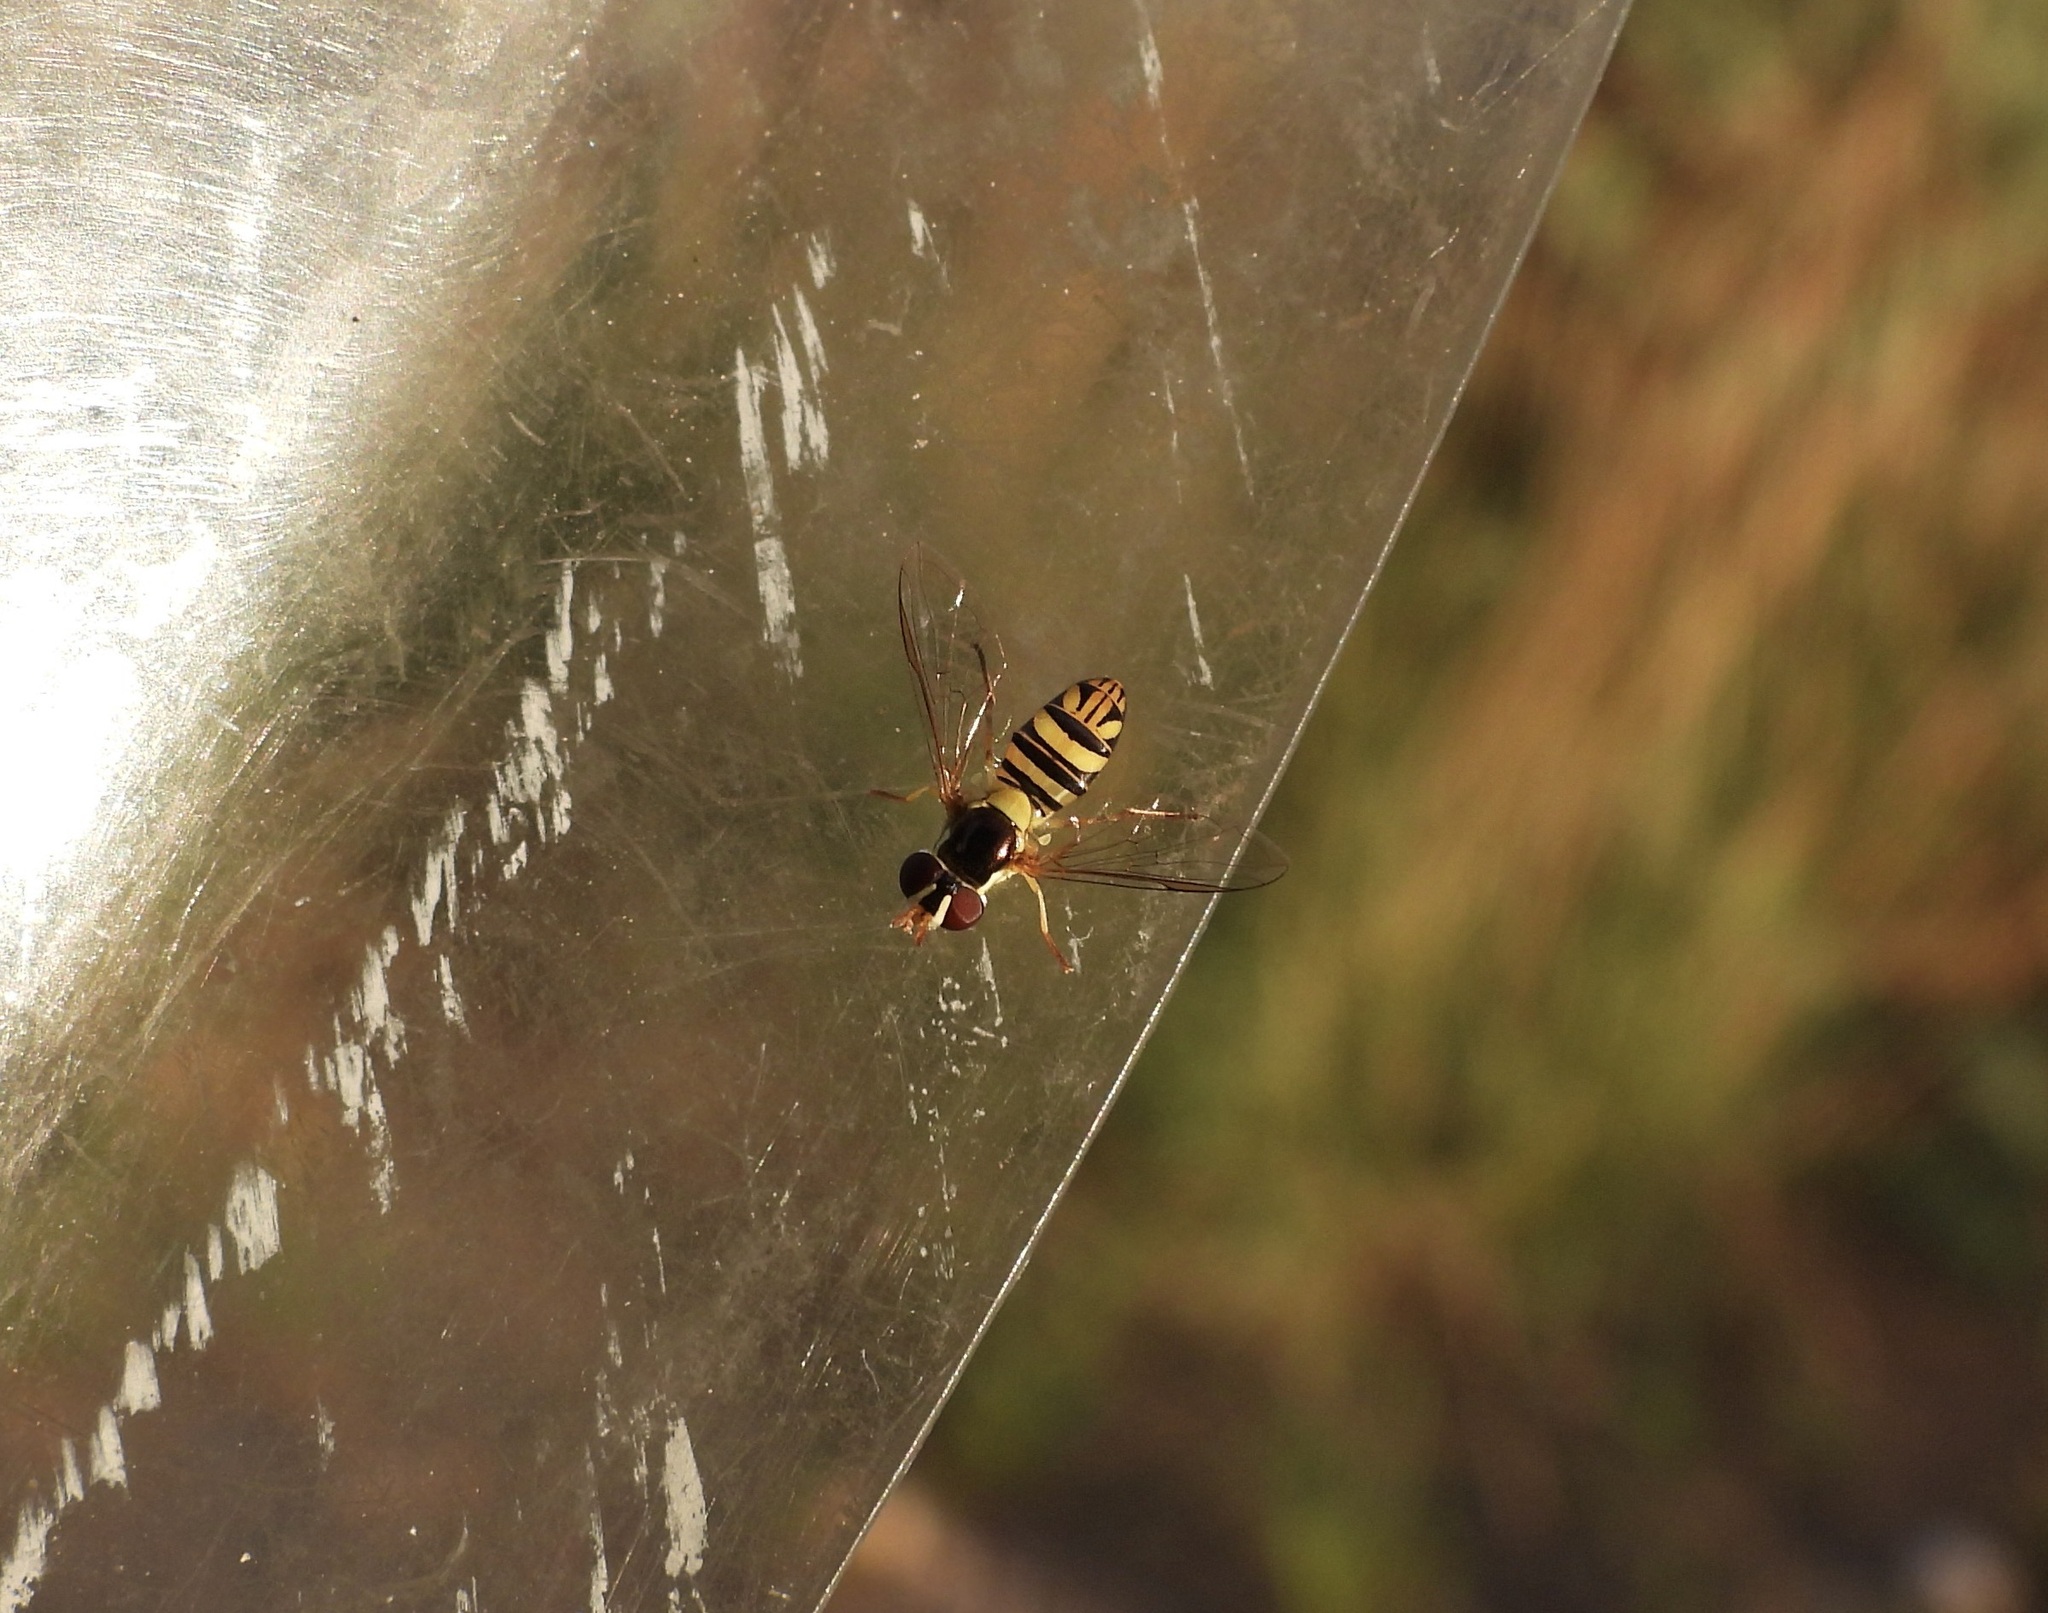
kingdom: Animalia
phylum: Arthropoda
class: Insecta
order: Diptera
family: Syrphidae
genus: Allograpta
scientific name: Allograpta obliqua
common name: Common oblique syrphid
